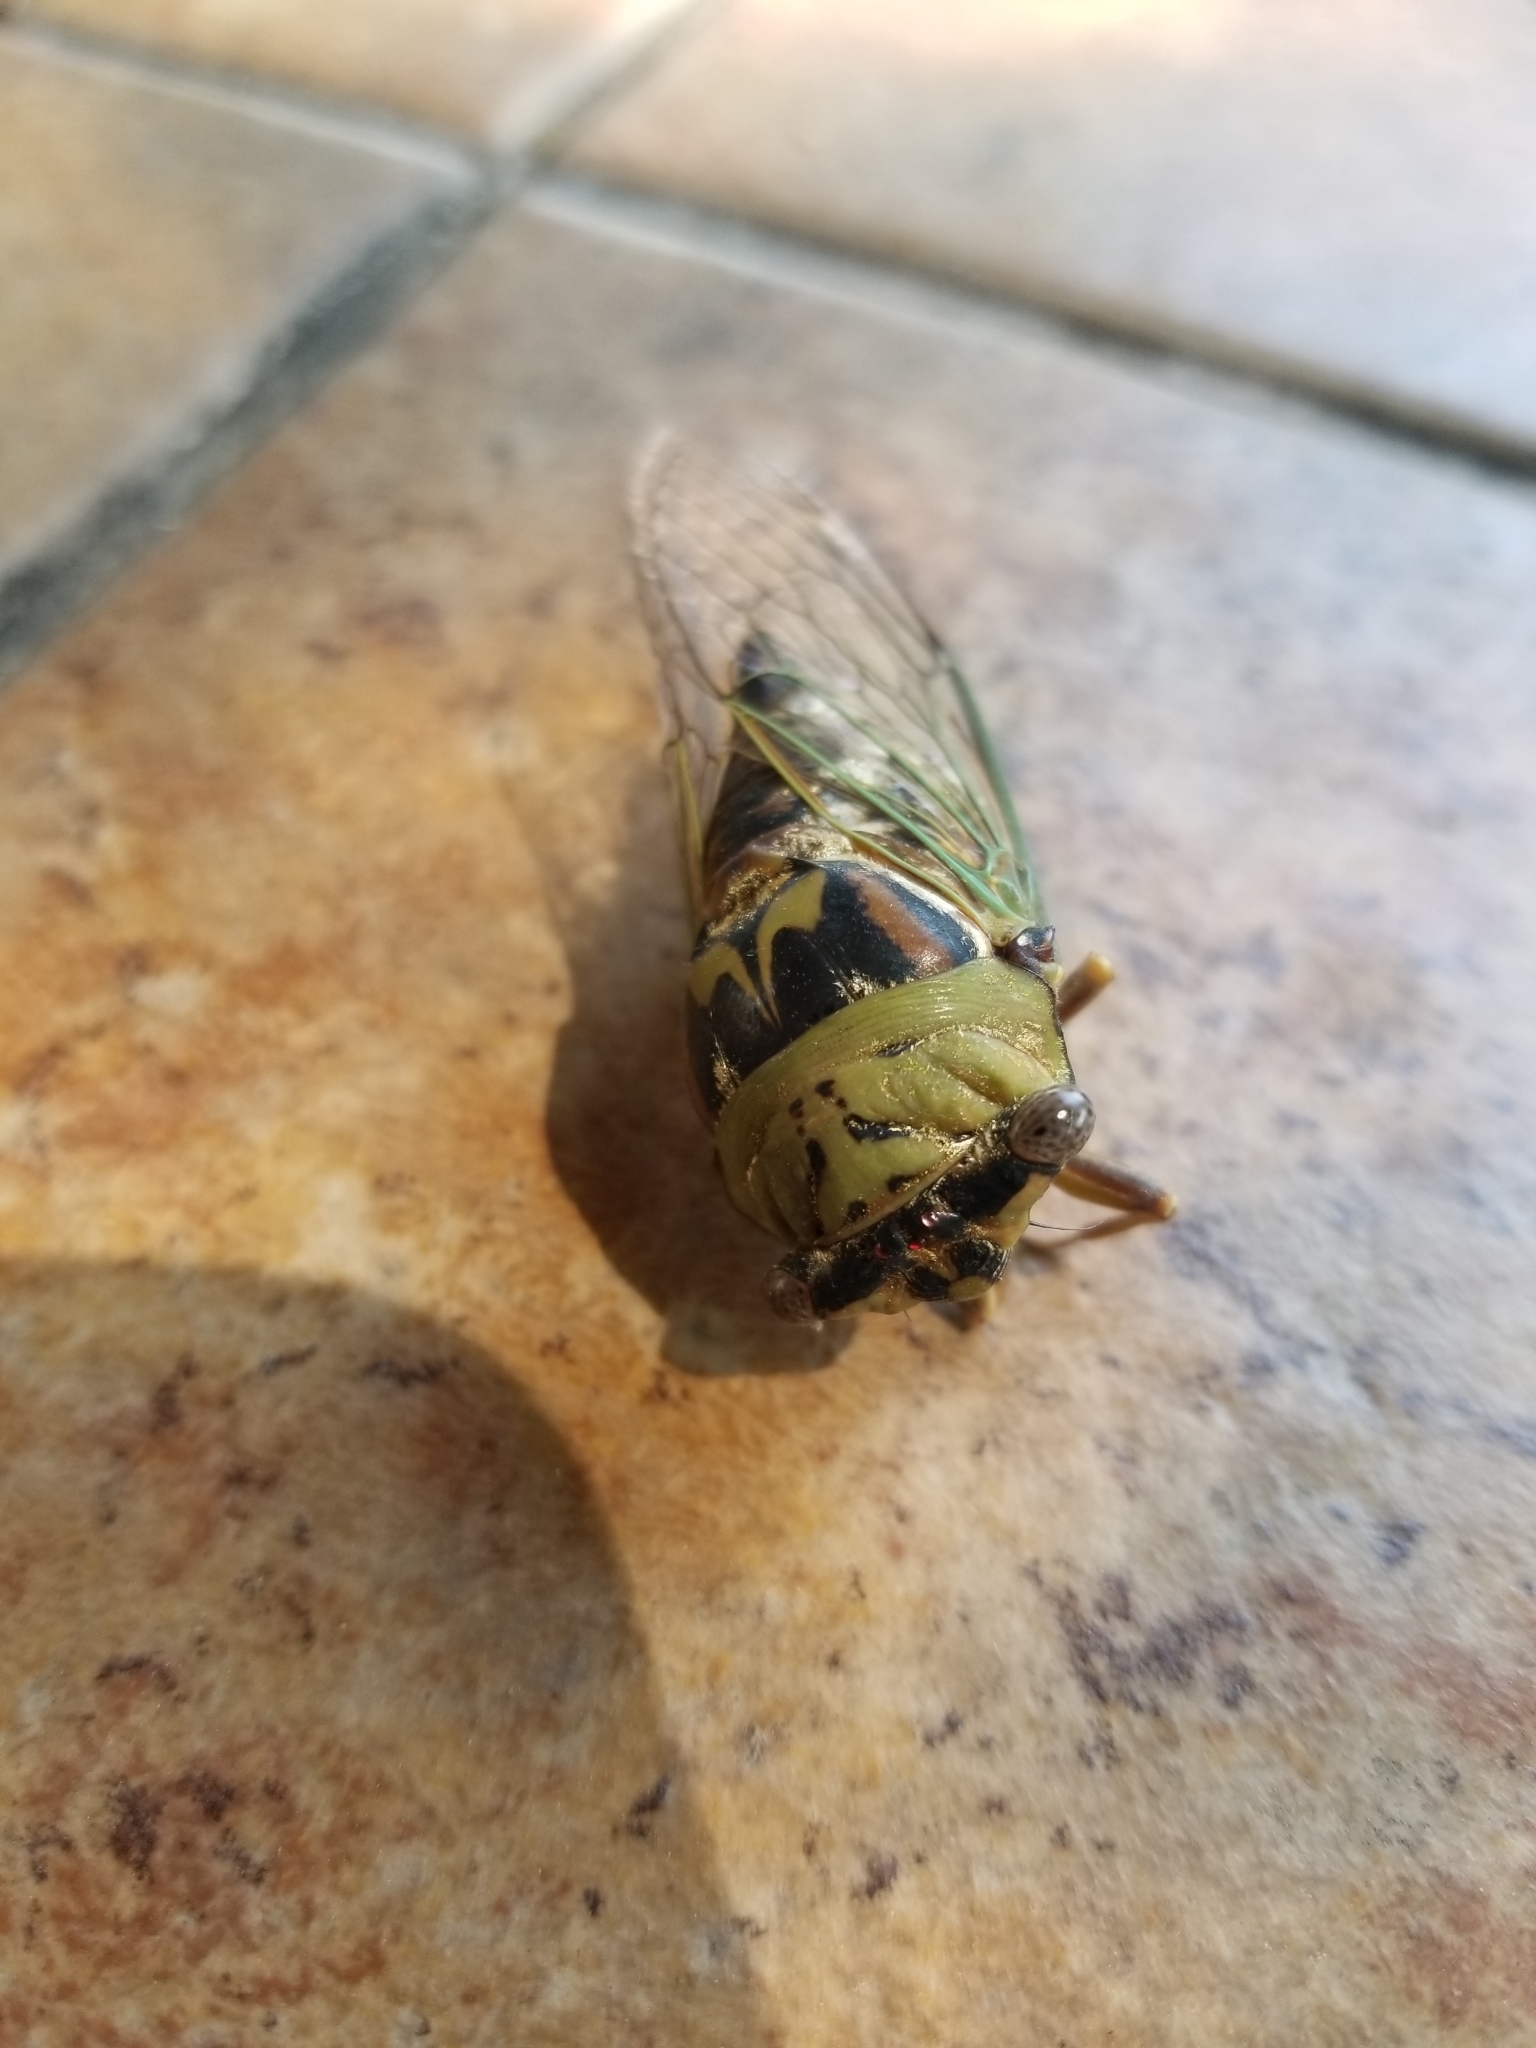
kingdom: Animalia
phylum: Arthropoda
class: Insecta
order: Hemiptera
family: Cicadidae
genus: Megatibicen
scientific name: Megatibicen resh
